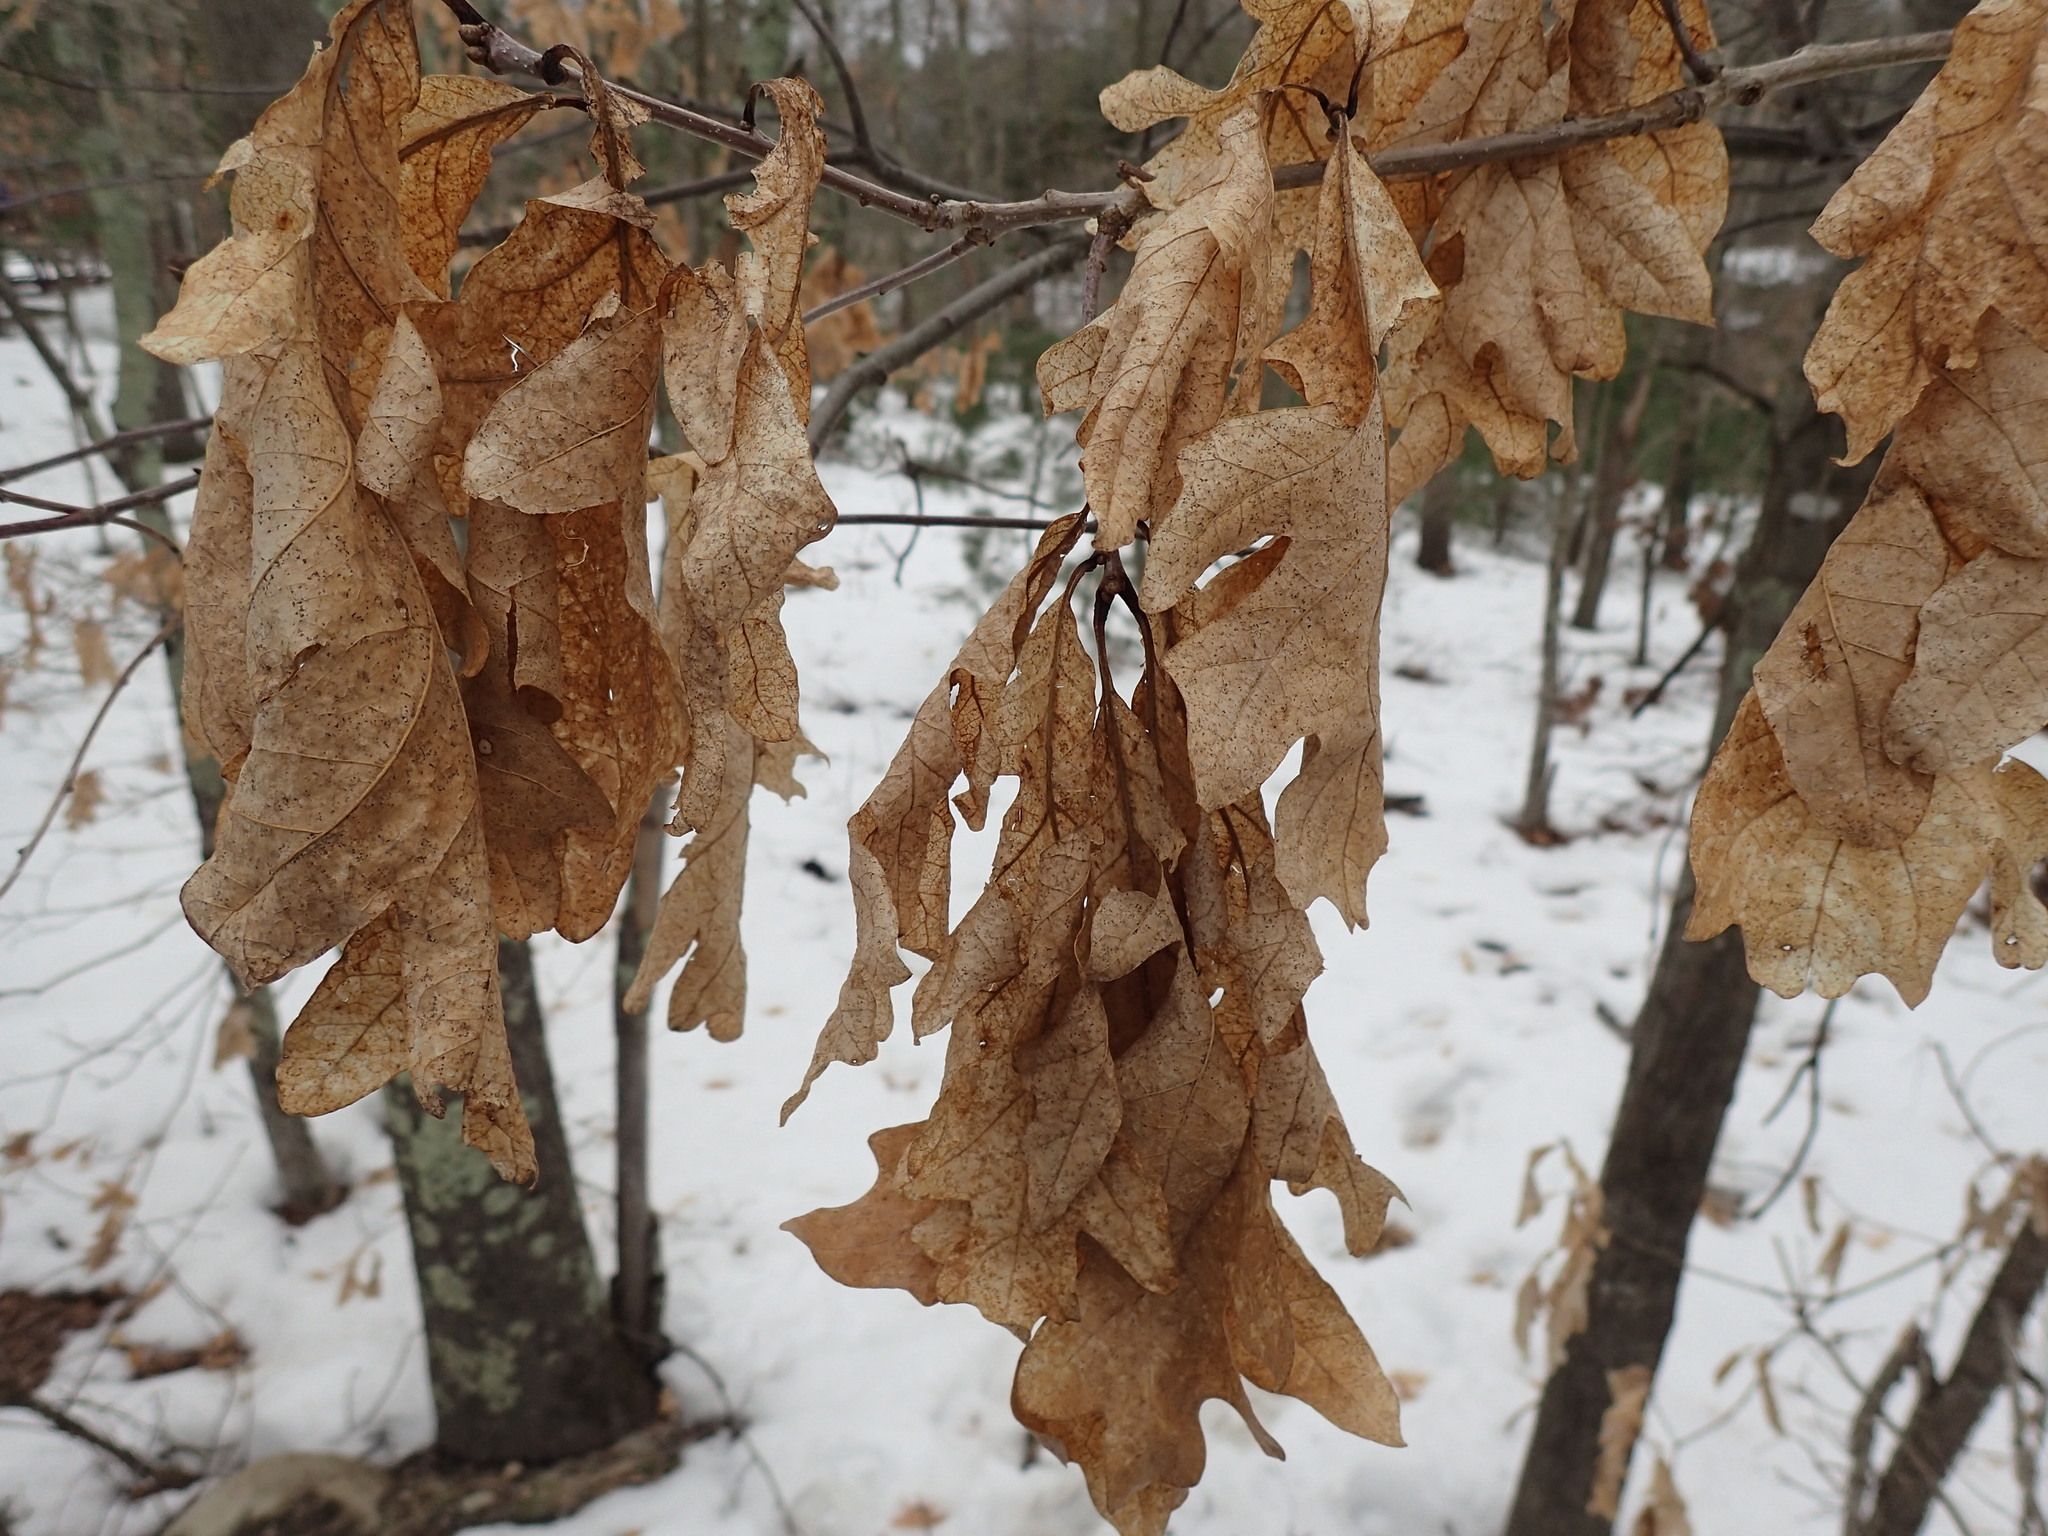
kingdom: Plantae
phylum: Tracheophyta
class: Magnoliopsida
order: Fagales
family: Fagaceae
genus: Quercus
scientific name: Quercus alba
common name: White oak
